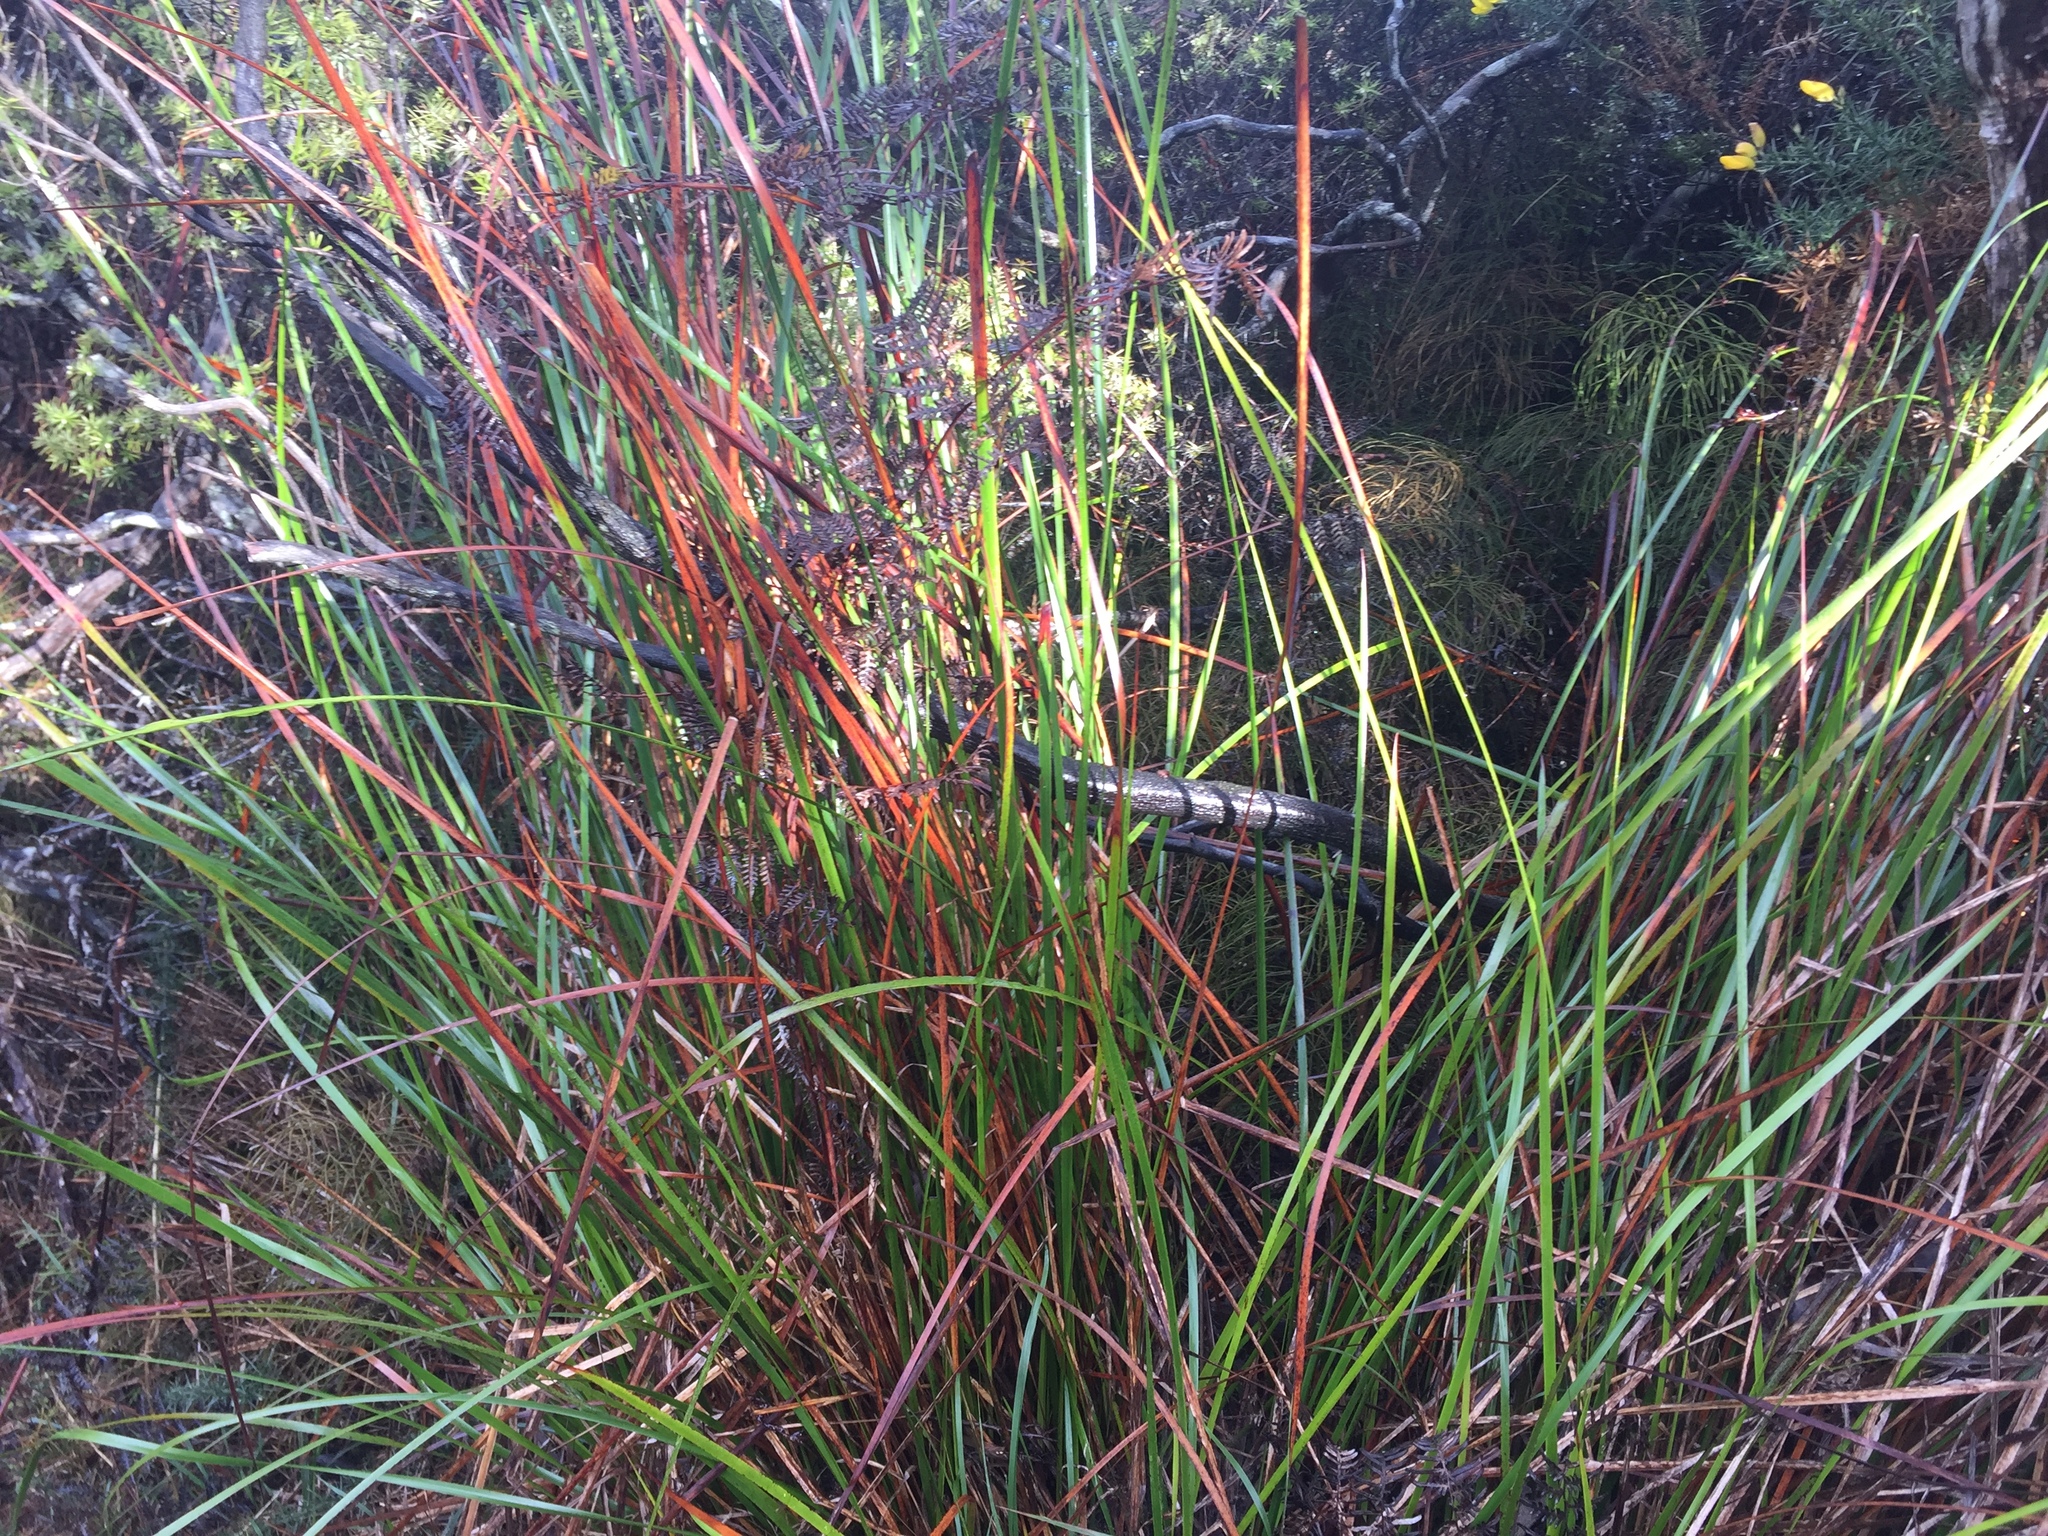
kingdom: Plantae
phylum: Tracheophyta
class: Liliopsida
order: Poales
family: Cyperaceae
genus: Lepidosperma
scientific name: Lepidosperma laterale
